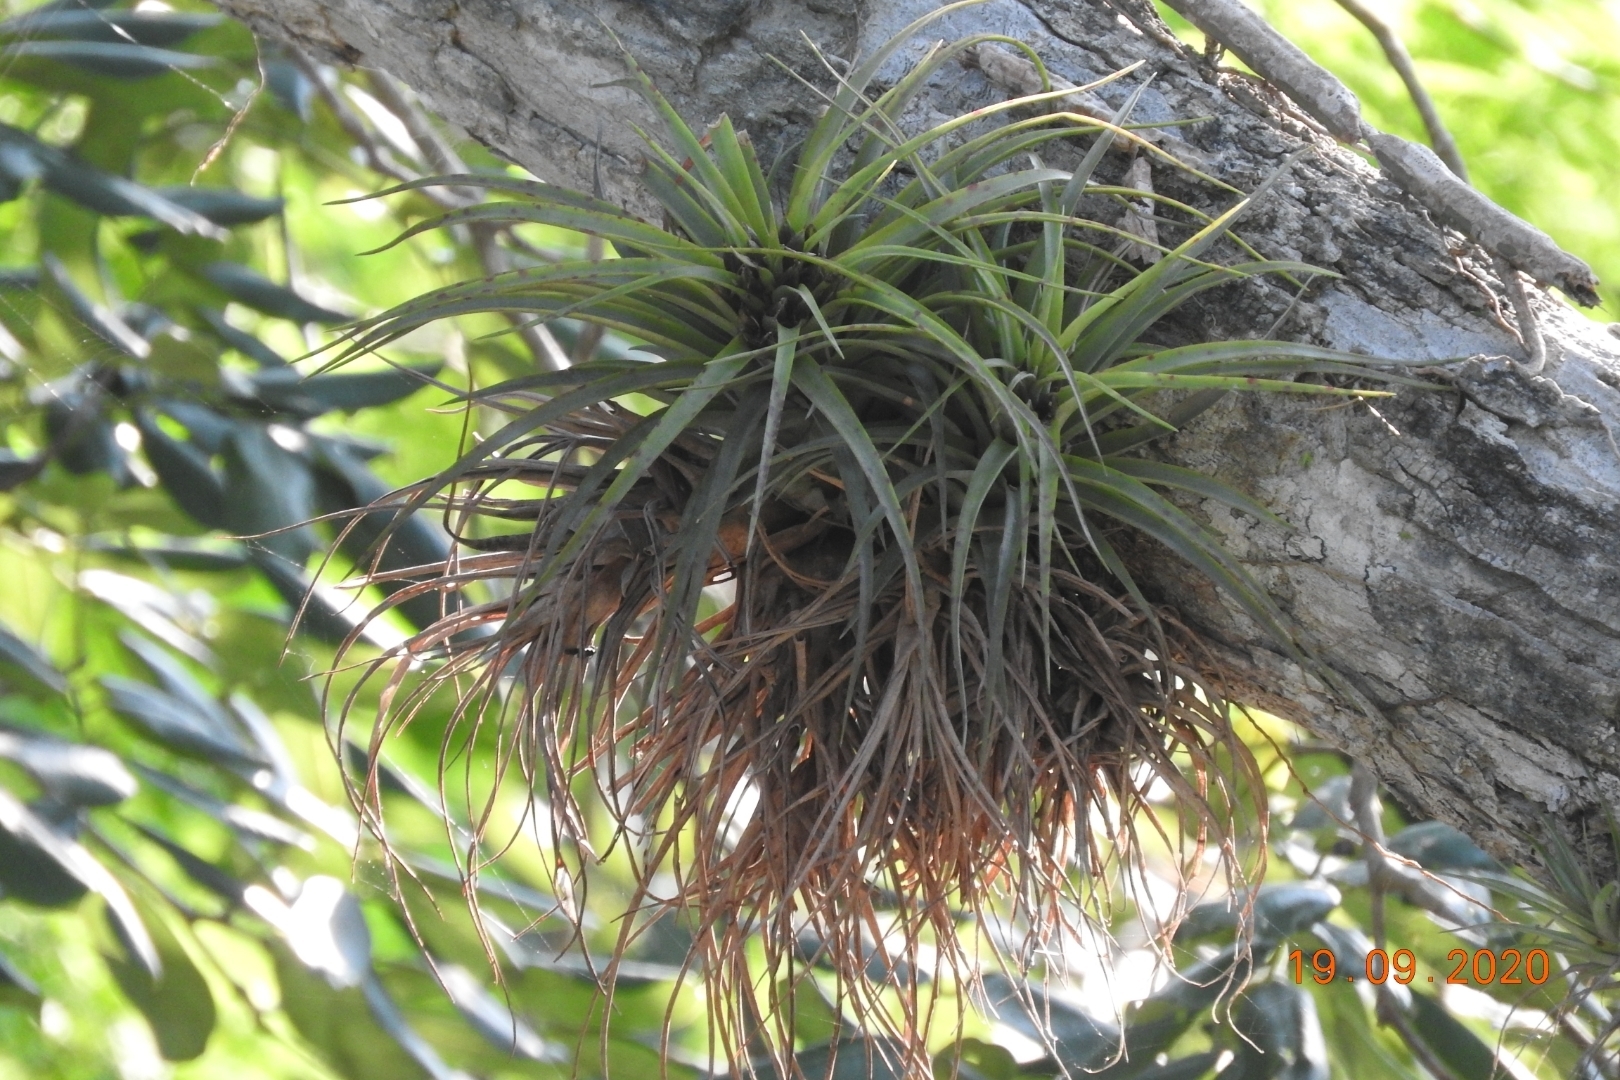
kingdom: Plantae
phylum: Tracheophyta
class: Liliopsida
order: Poales
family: Bromeliaceae
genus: Tillandsia
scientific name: Tillandsia brachycaulos
